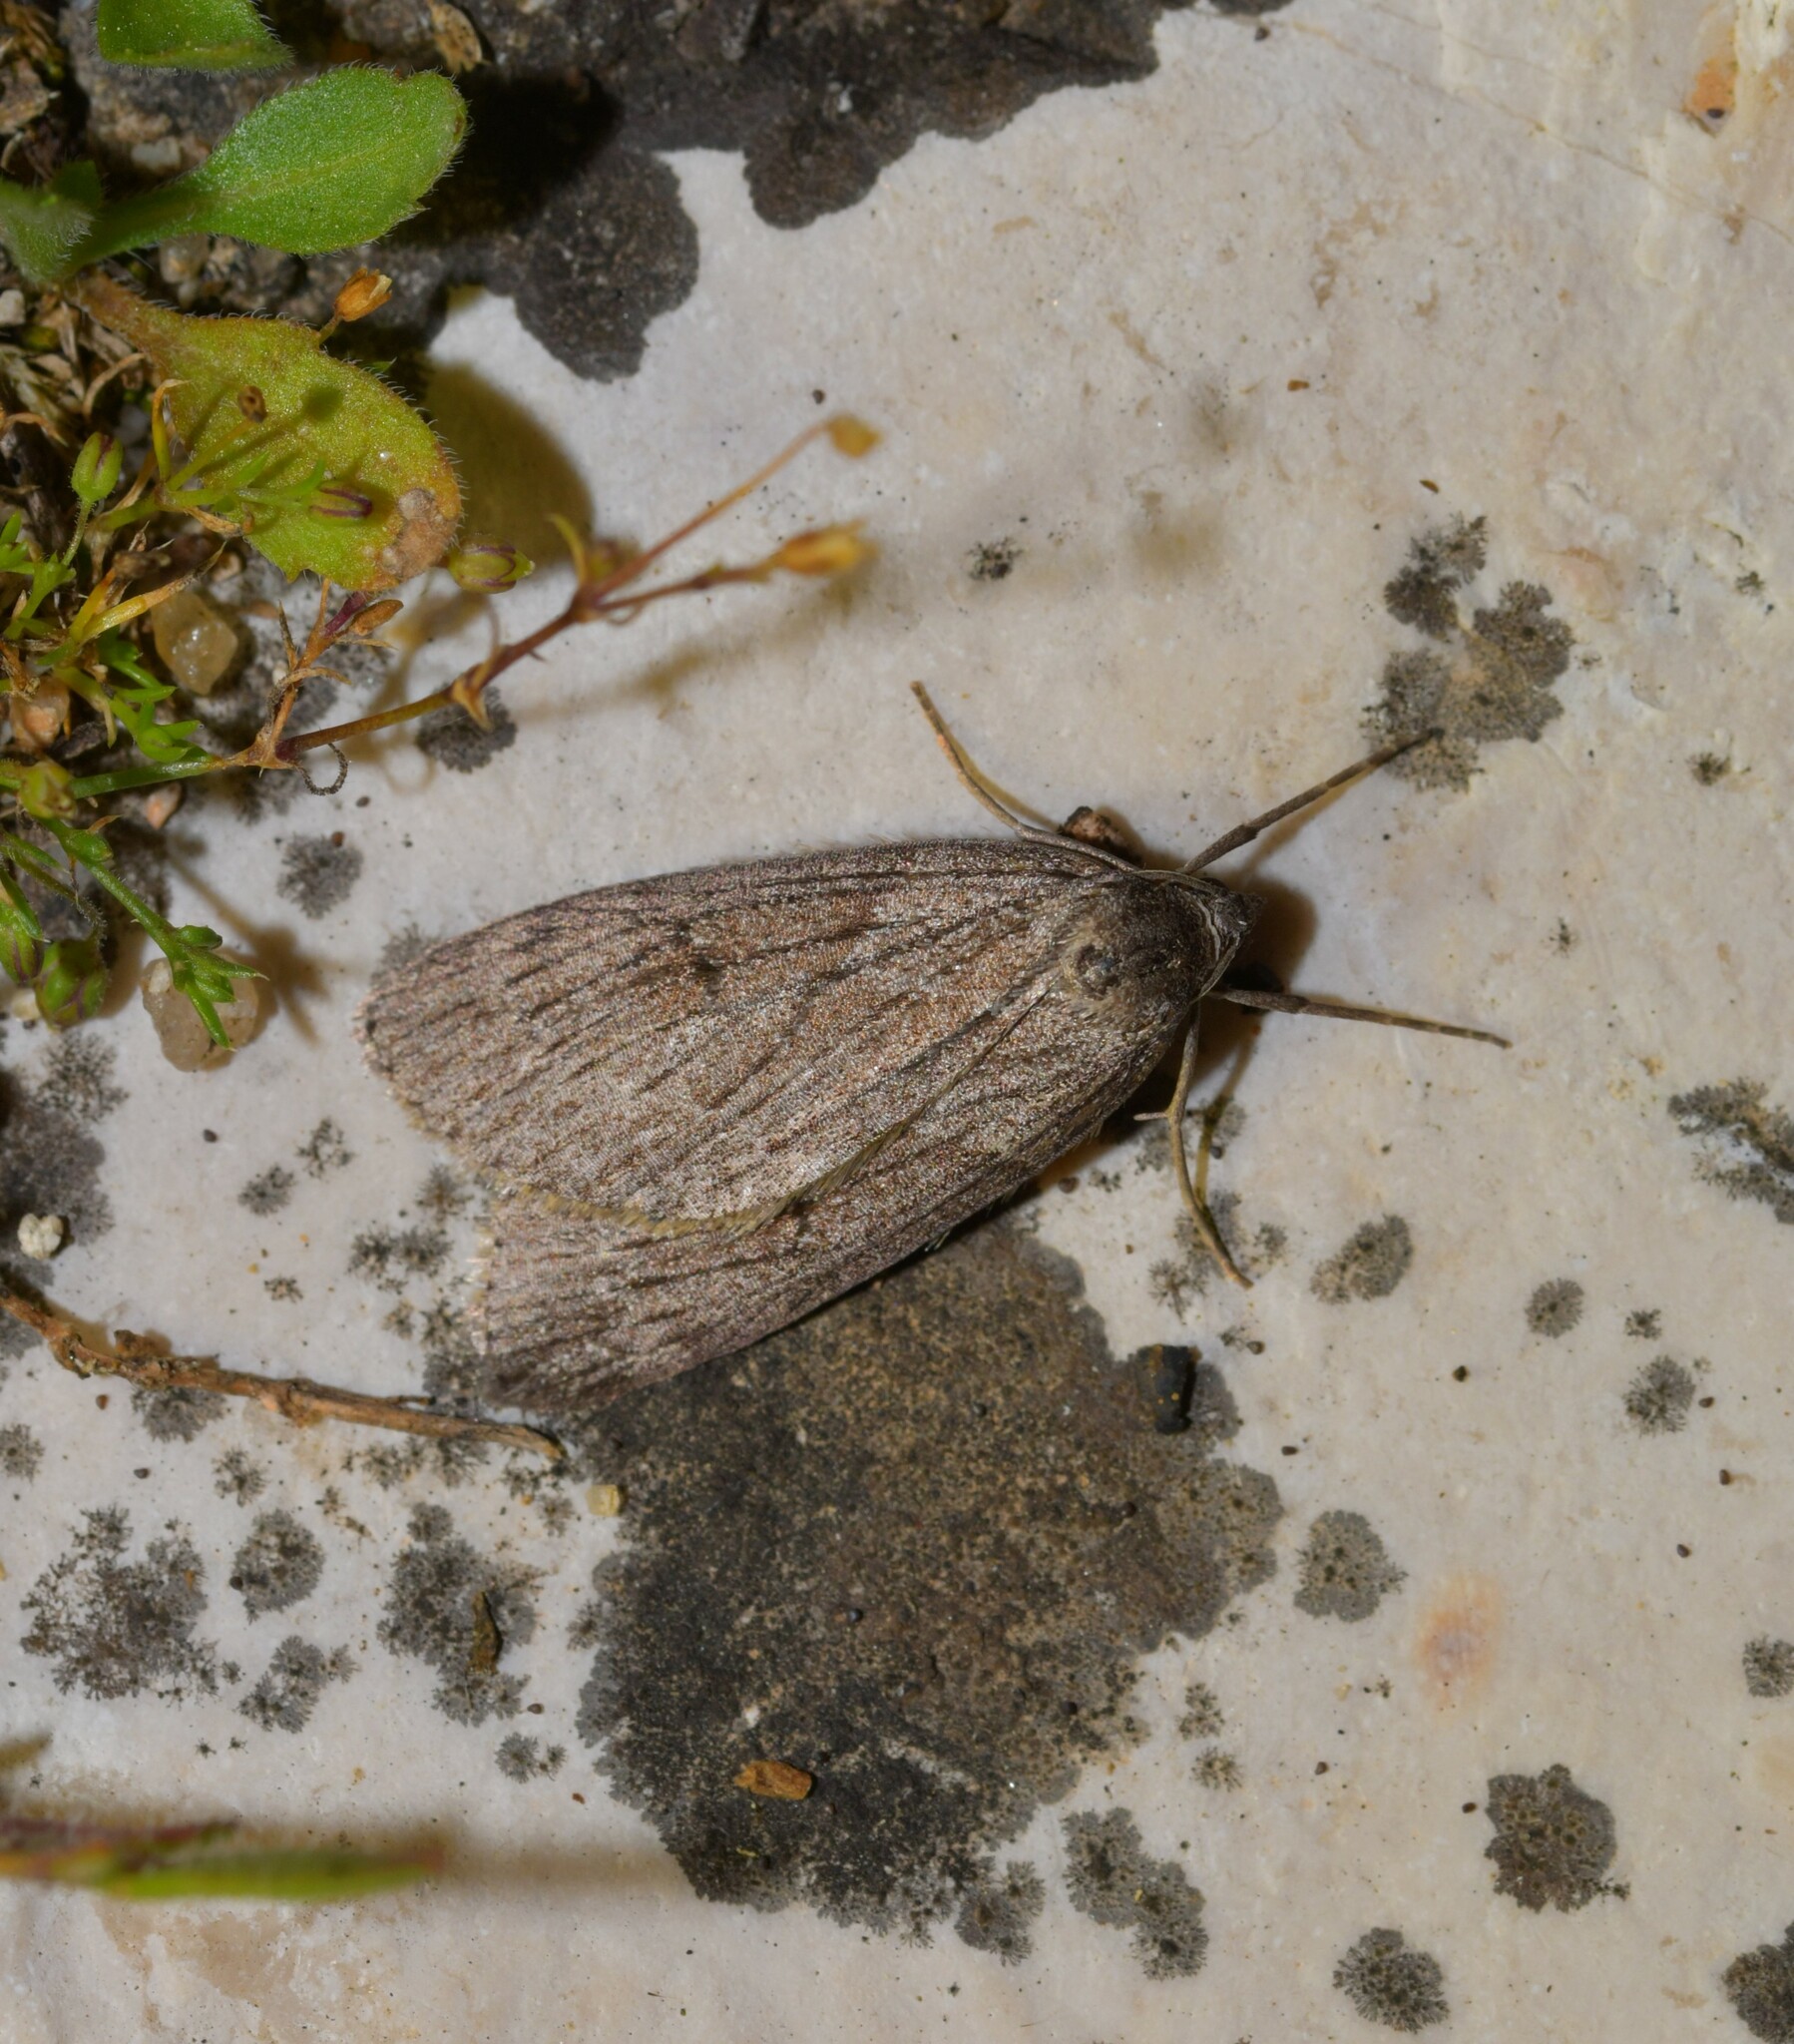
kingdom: Animalia
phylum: Arthropoda
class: Insecta
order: Lepidoptera
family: Geometridae
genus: Pachycnemia
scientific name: Pachycnemia hippocastanaria
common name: Horse chestnut
